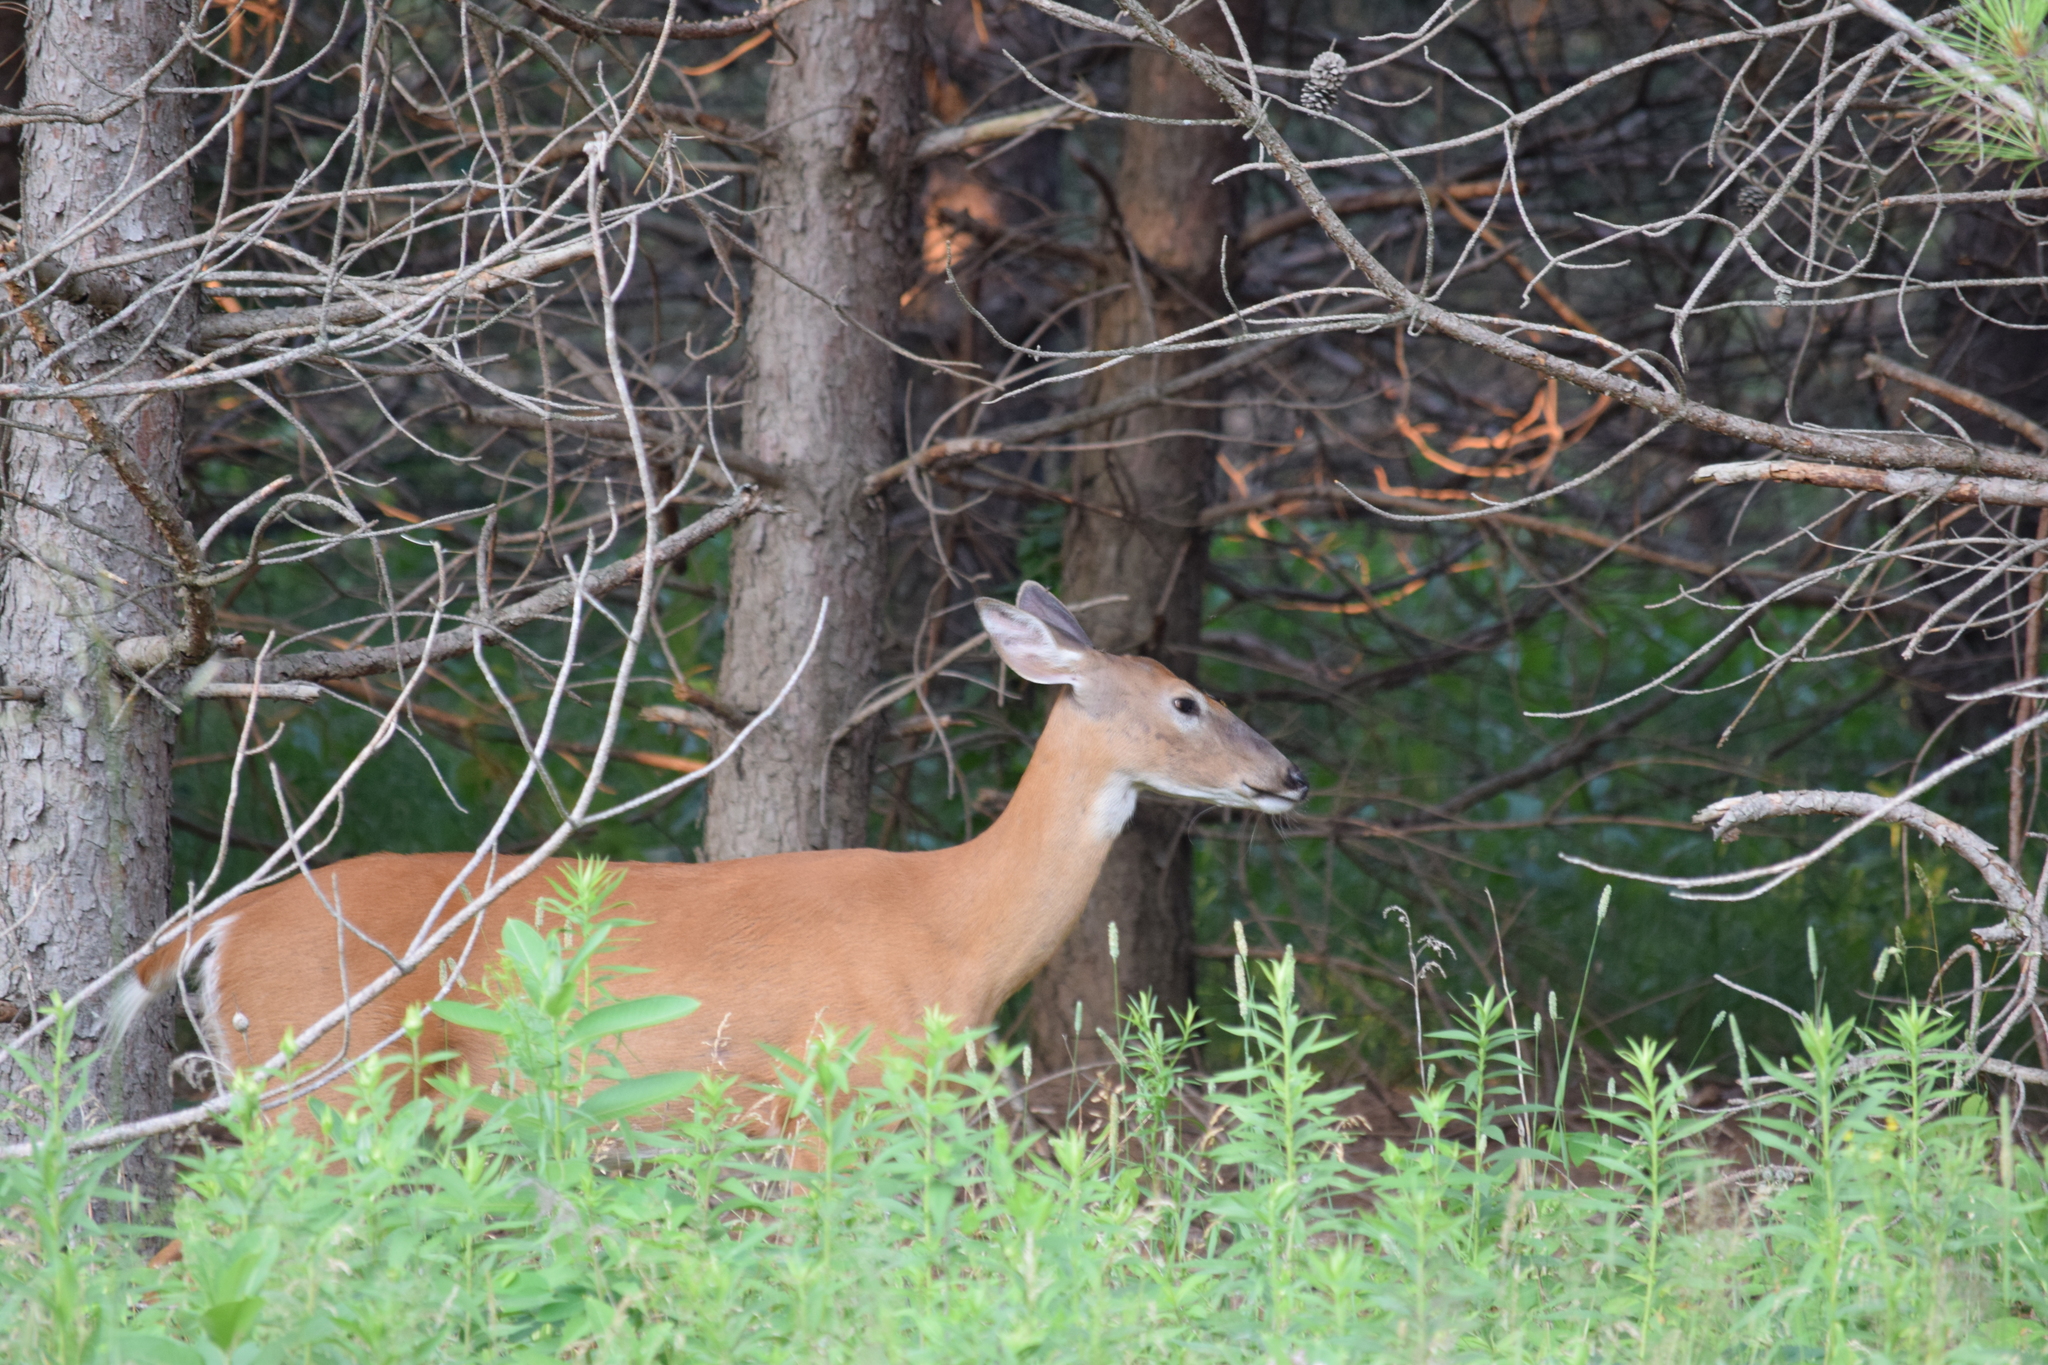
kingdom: Animalia
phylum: Chordata
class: Mammalia
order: Artiodactyla
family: Cervidae
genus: Odocoileus
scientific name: Odocoileus virginianus
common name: White-tailed deer
